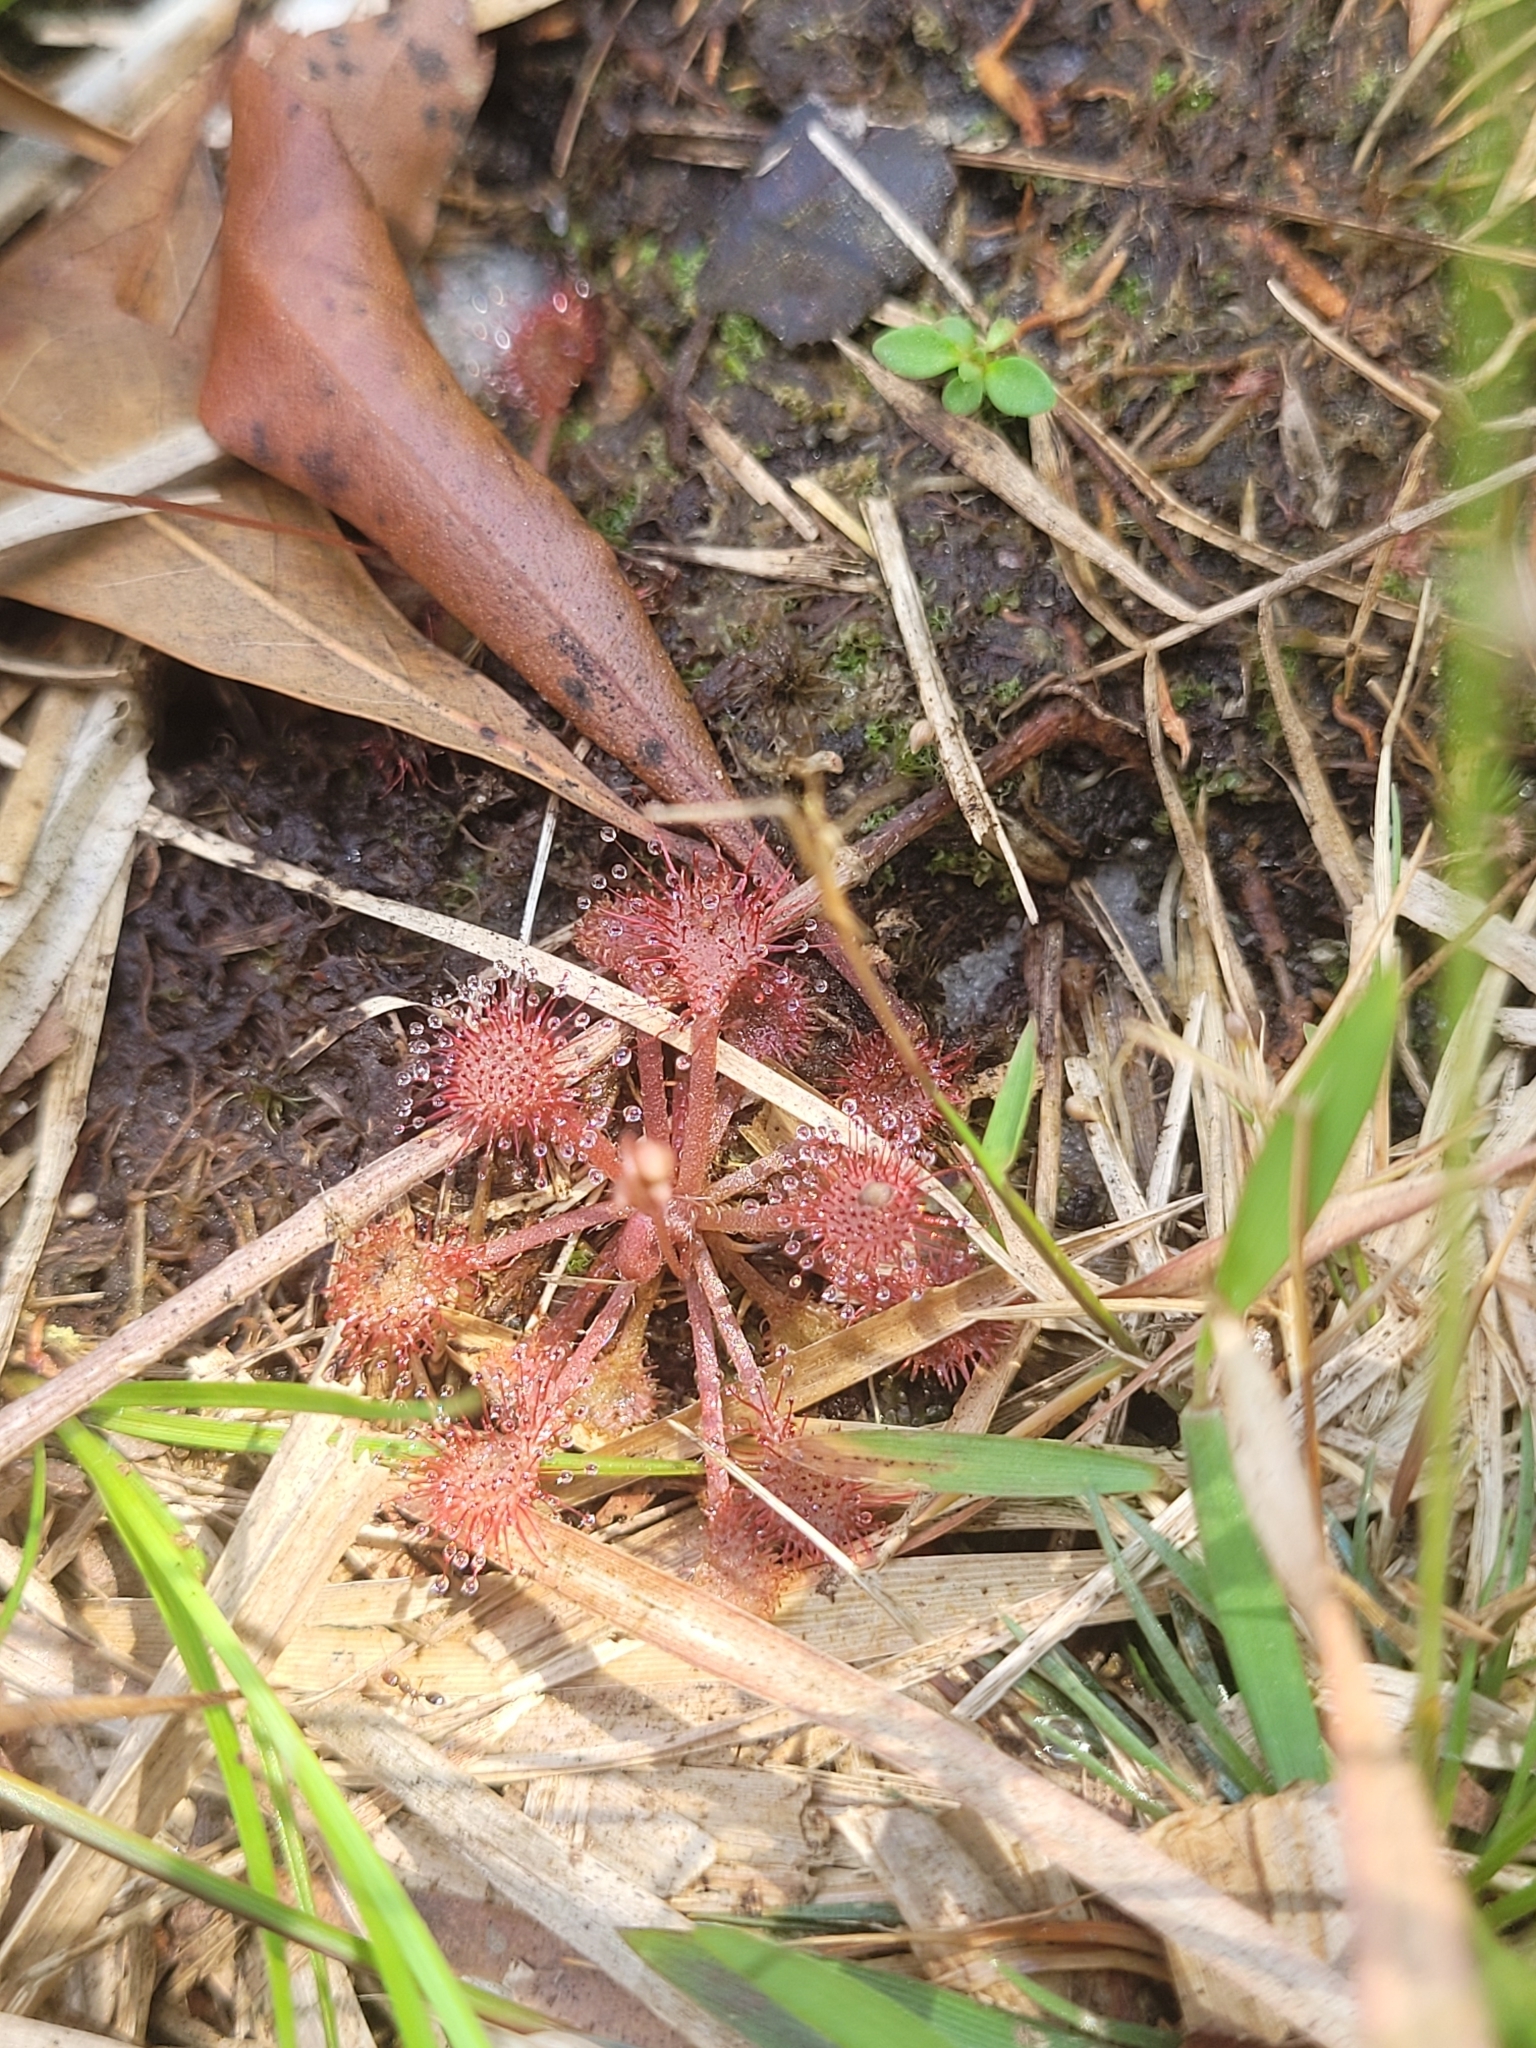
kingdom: Plantae
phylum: Tracheophyta
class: Magnoliopsida
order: Caryophyllales
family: Droseraceae
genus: Drosera
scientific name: Drosera capillaris
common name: Pink sundew
